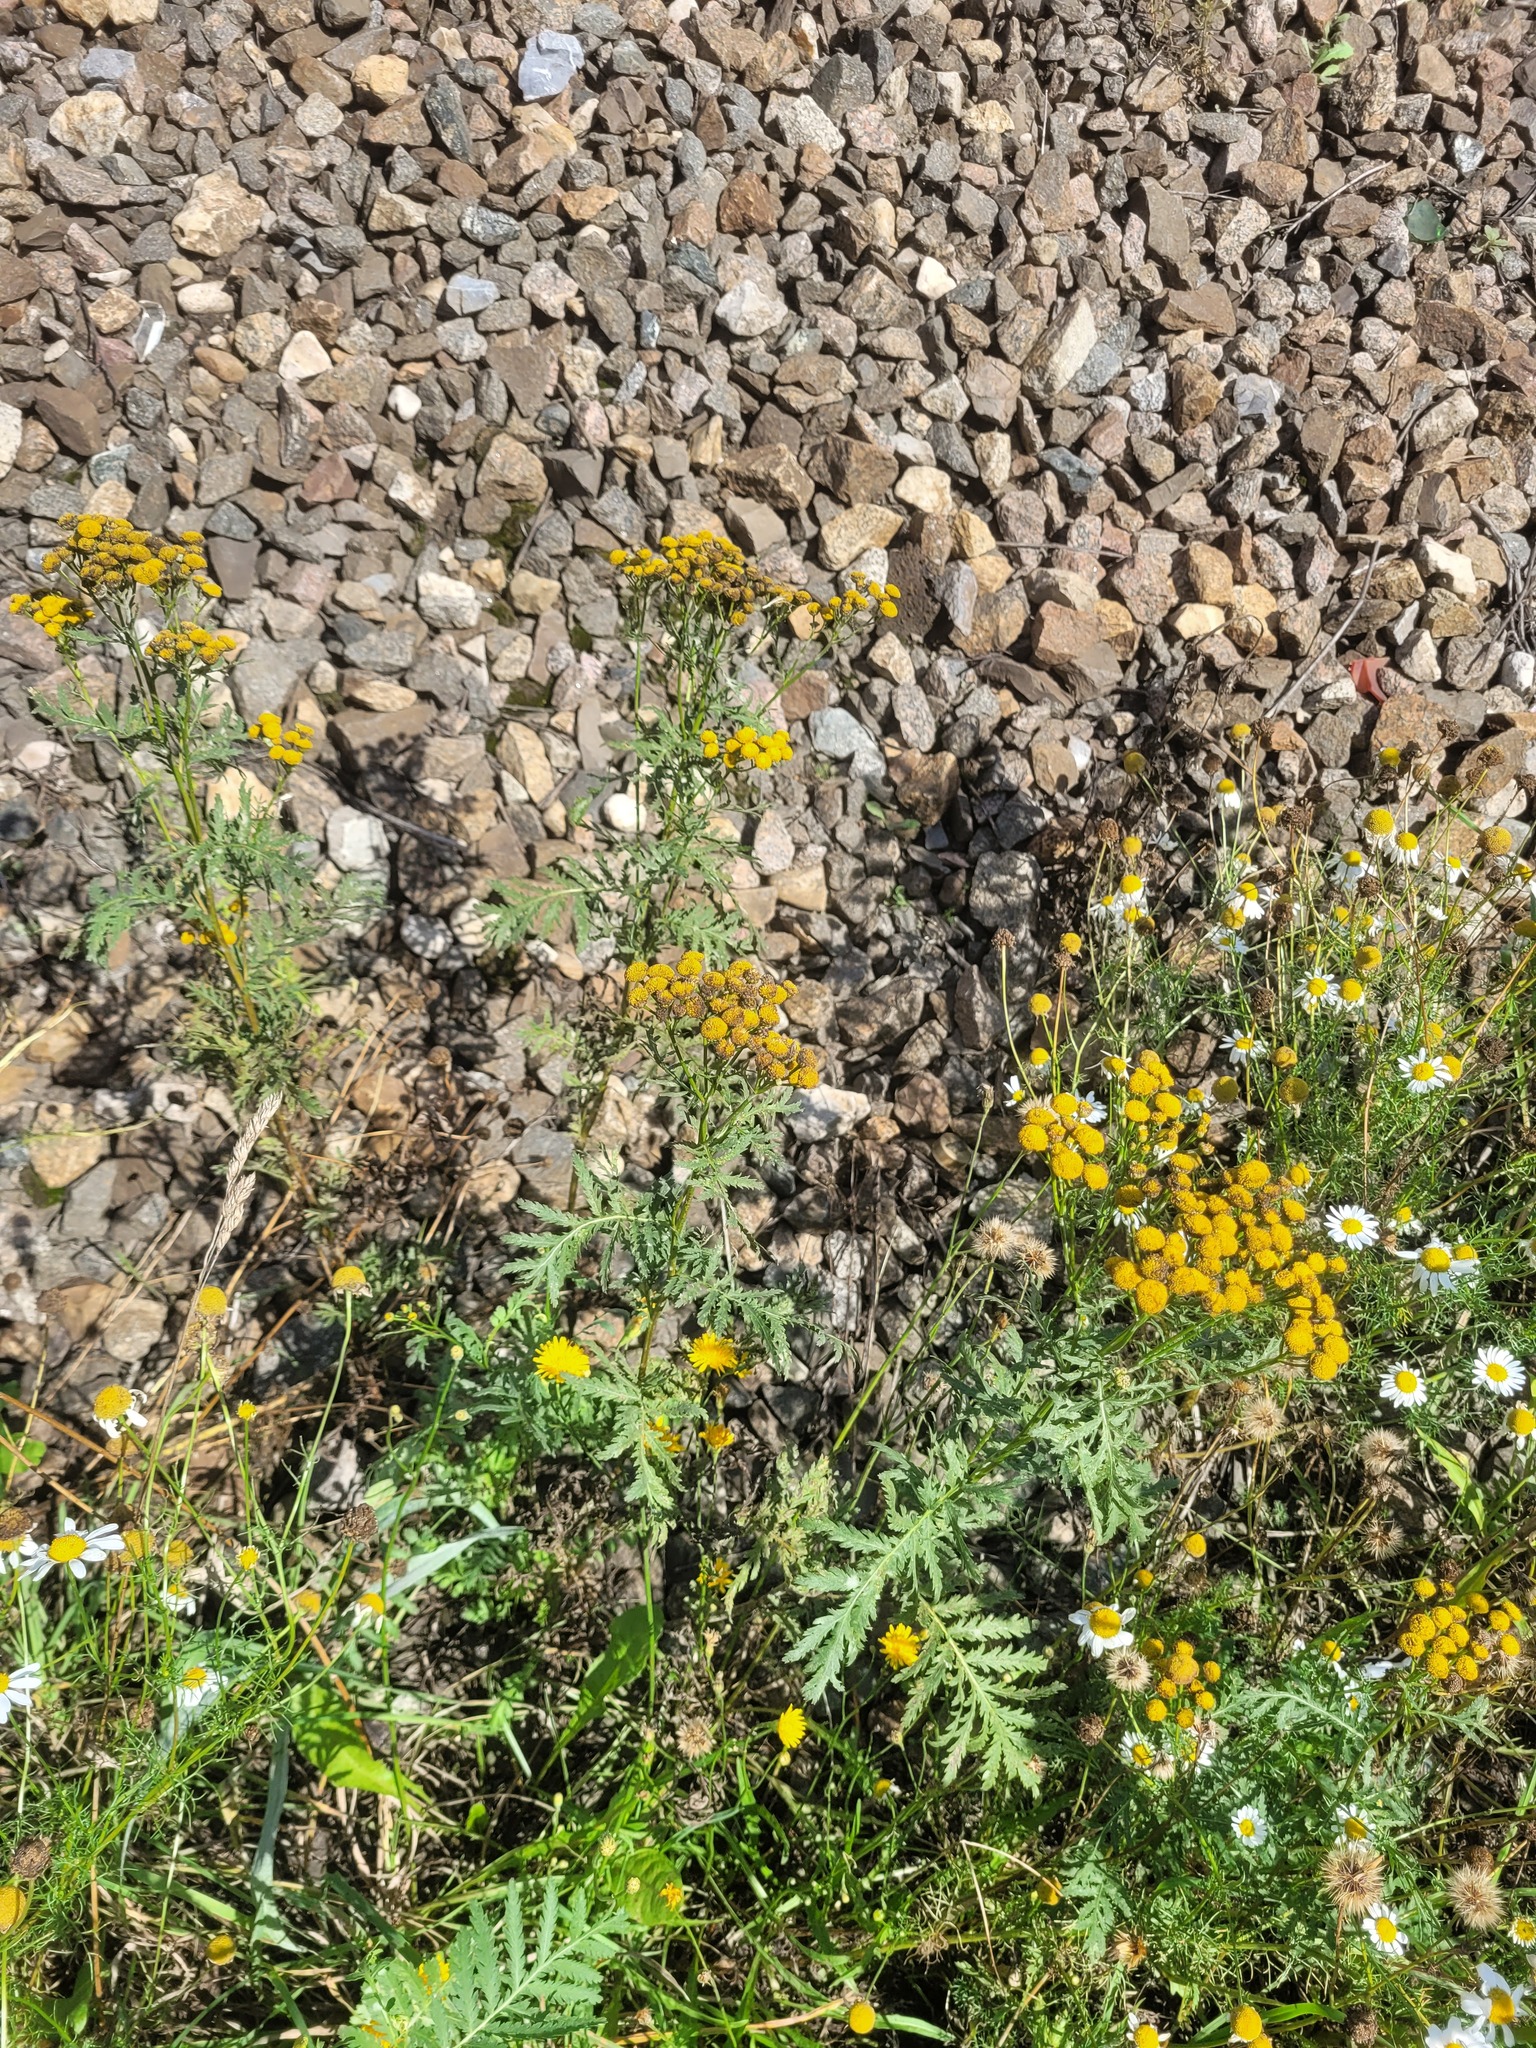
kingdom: Plantae
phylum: Tracheophyta
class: Magnoliopsida
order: Asterales
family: Asteraceae
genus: Tanacetum
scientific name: Tanacetum vulgare
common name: Common tansy
